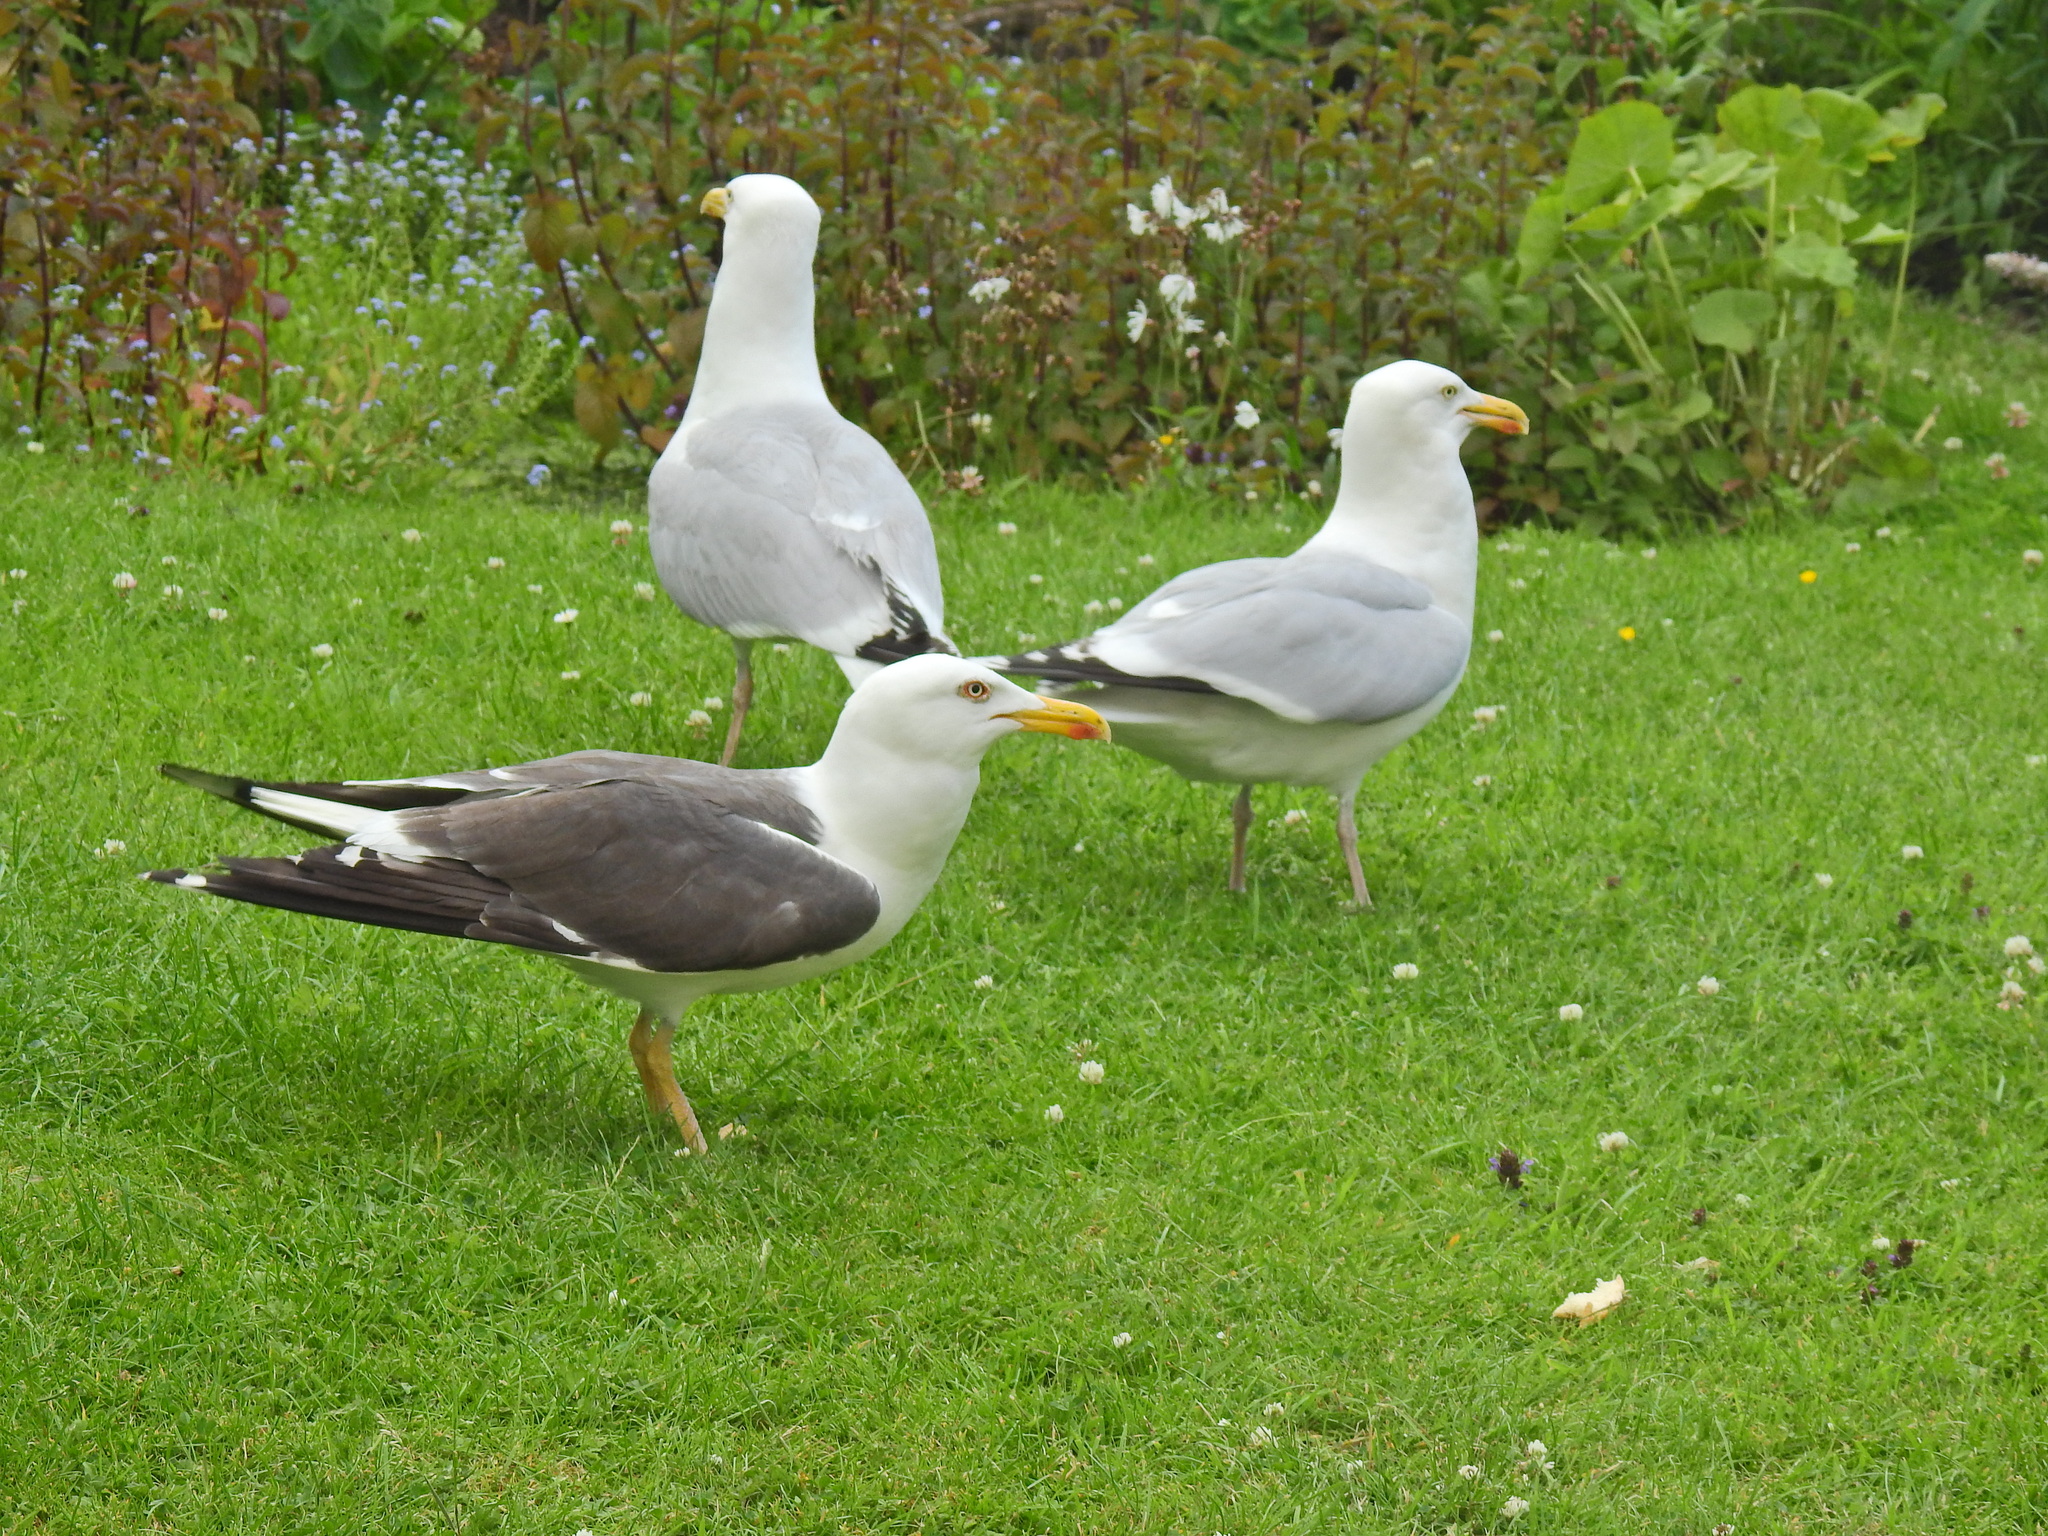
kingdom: Animalia
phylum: Chordata
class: Aves
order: Charadriiformes
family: Laridae
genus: Larus
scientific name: Larus argentatus
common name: Herring gull
